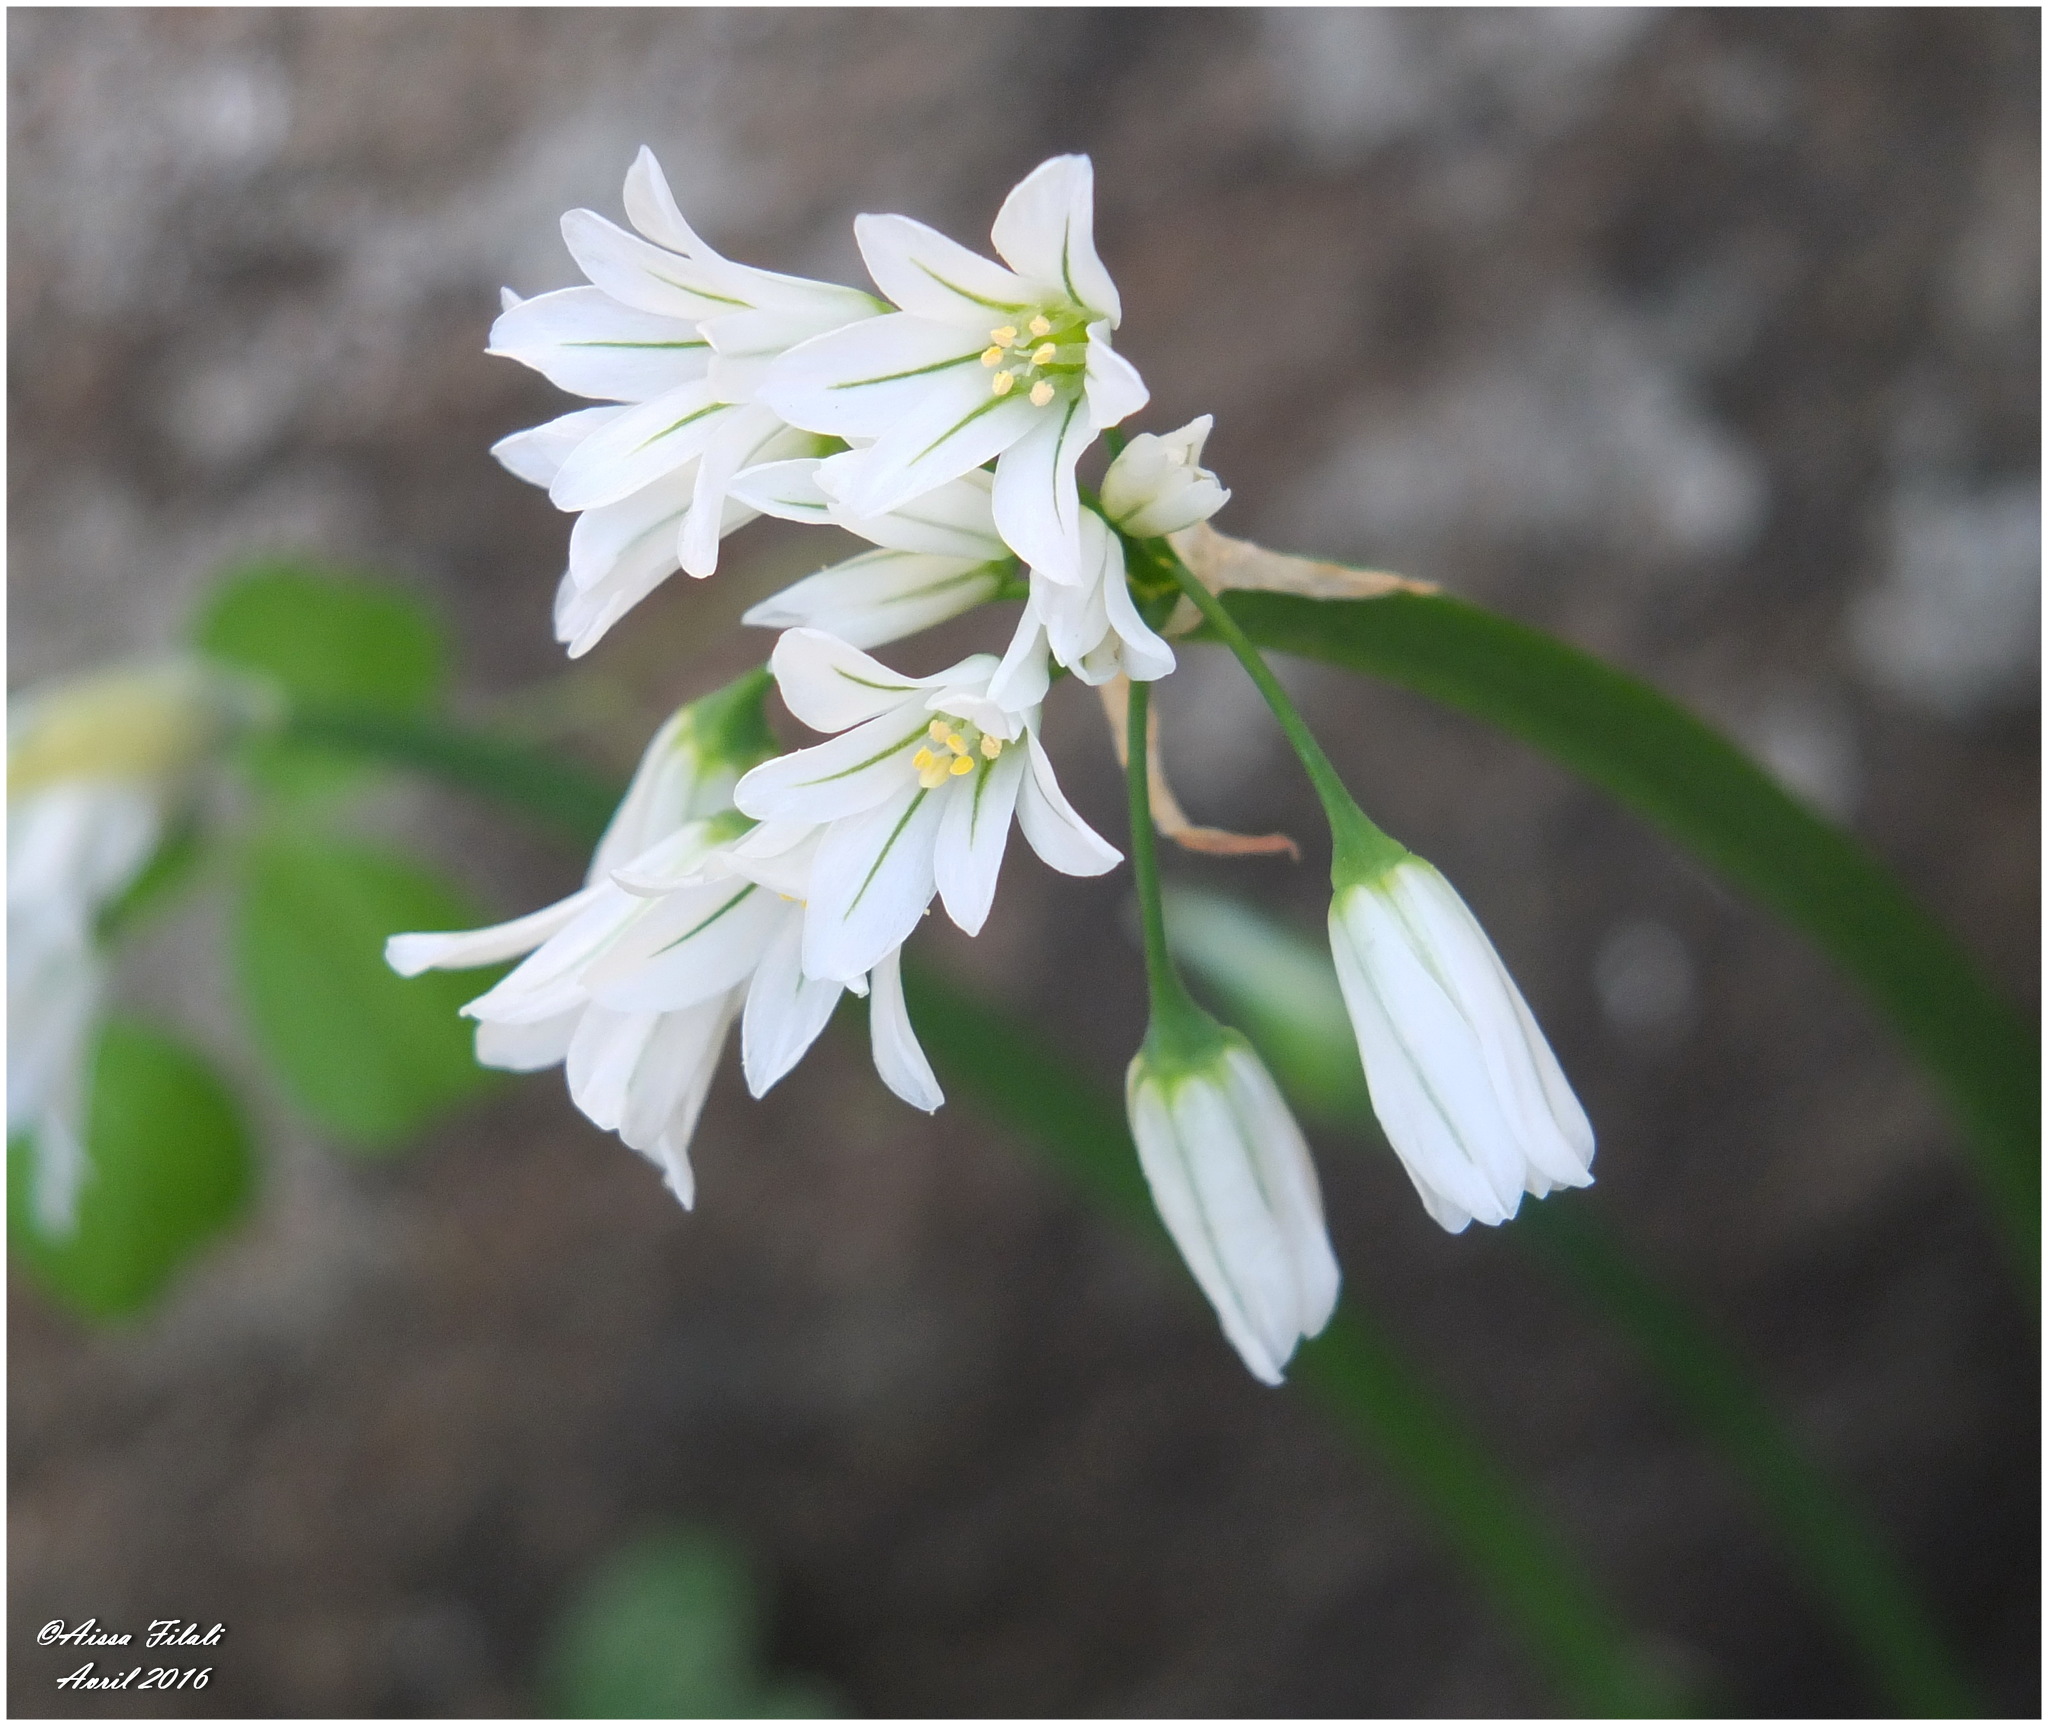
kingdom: Plantae
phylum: Tracheophyta
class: Liliopsida
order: Asparagales
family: Amaryllidaceae
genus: Allium
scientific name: Allium triquetrum
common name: Three-cornered garlic
